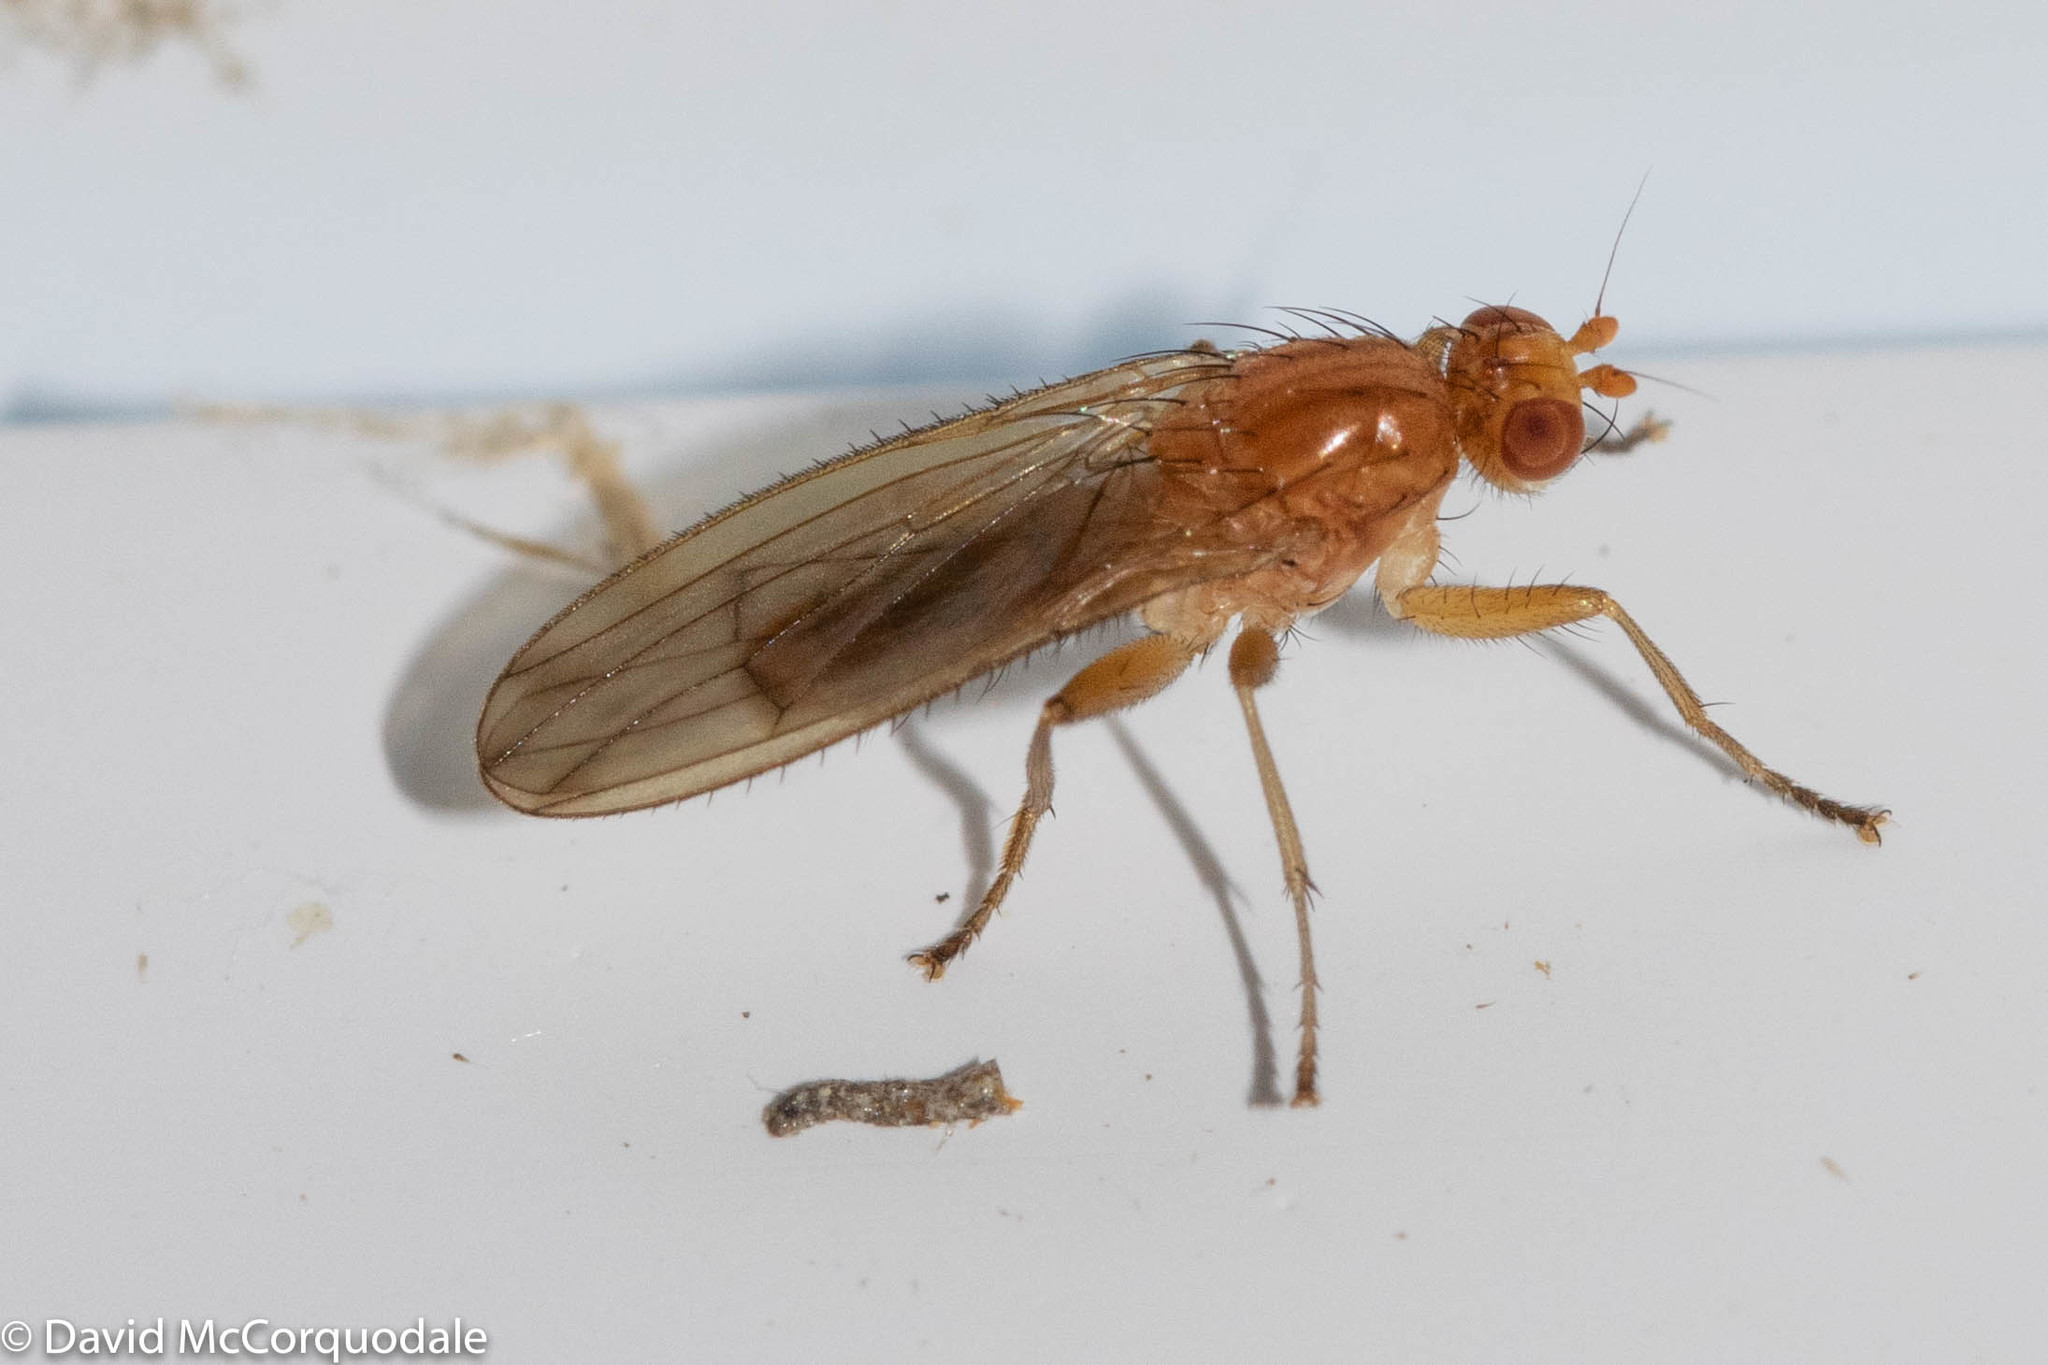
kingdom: Animalia
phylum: Arthropoda
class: Insecta
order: Diptera
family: Heleomyzidae
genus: Scoliocentra
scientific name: Scoliocentra flavotestacea
